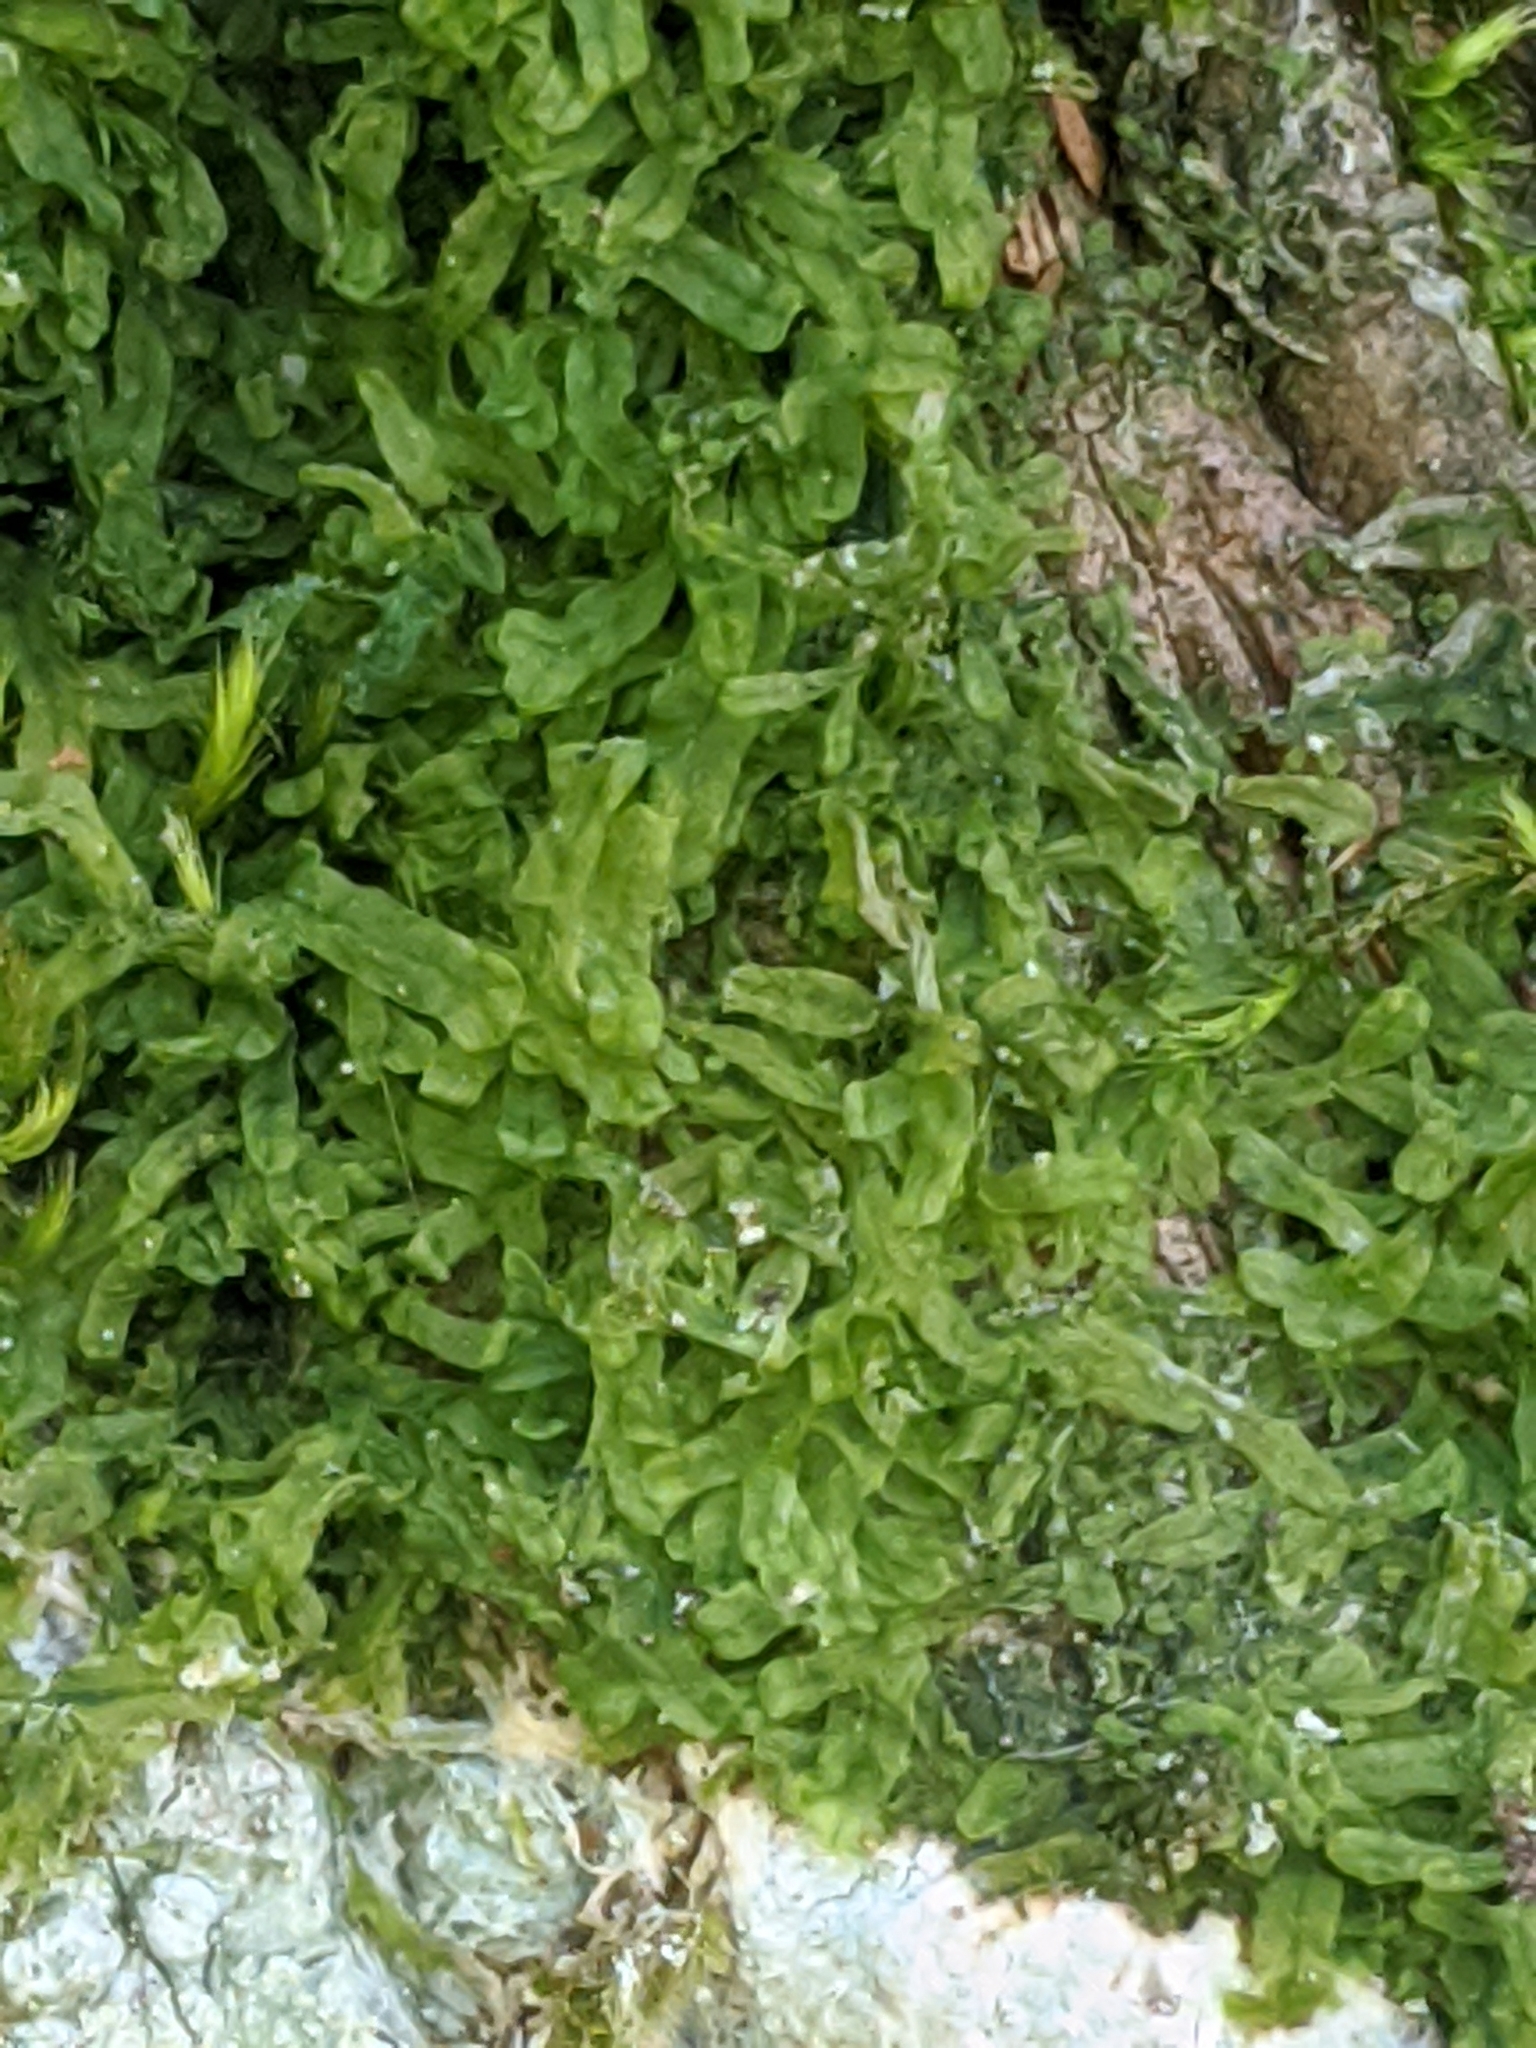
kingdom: Plantae
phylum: Marchantiophyta
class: Jungermanniopsida
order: Metzgeriales
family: Metzgeriaceae
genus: Metzgeria
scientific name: Metzgeria furcata
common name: Forked veilwort
